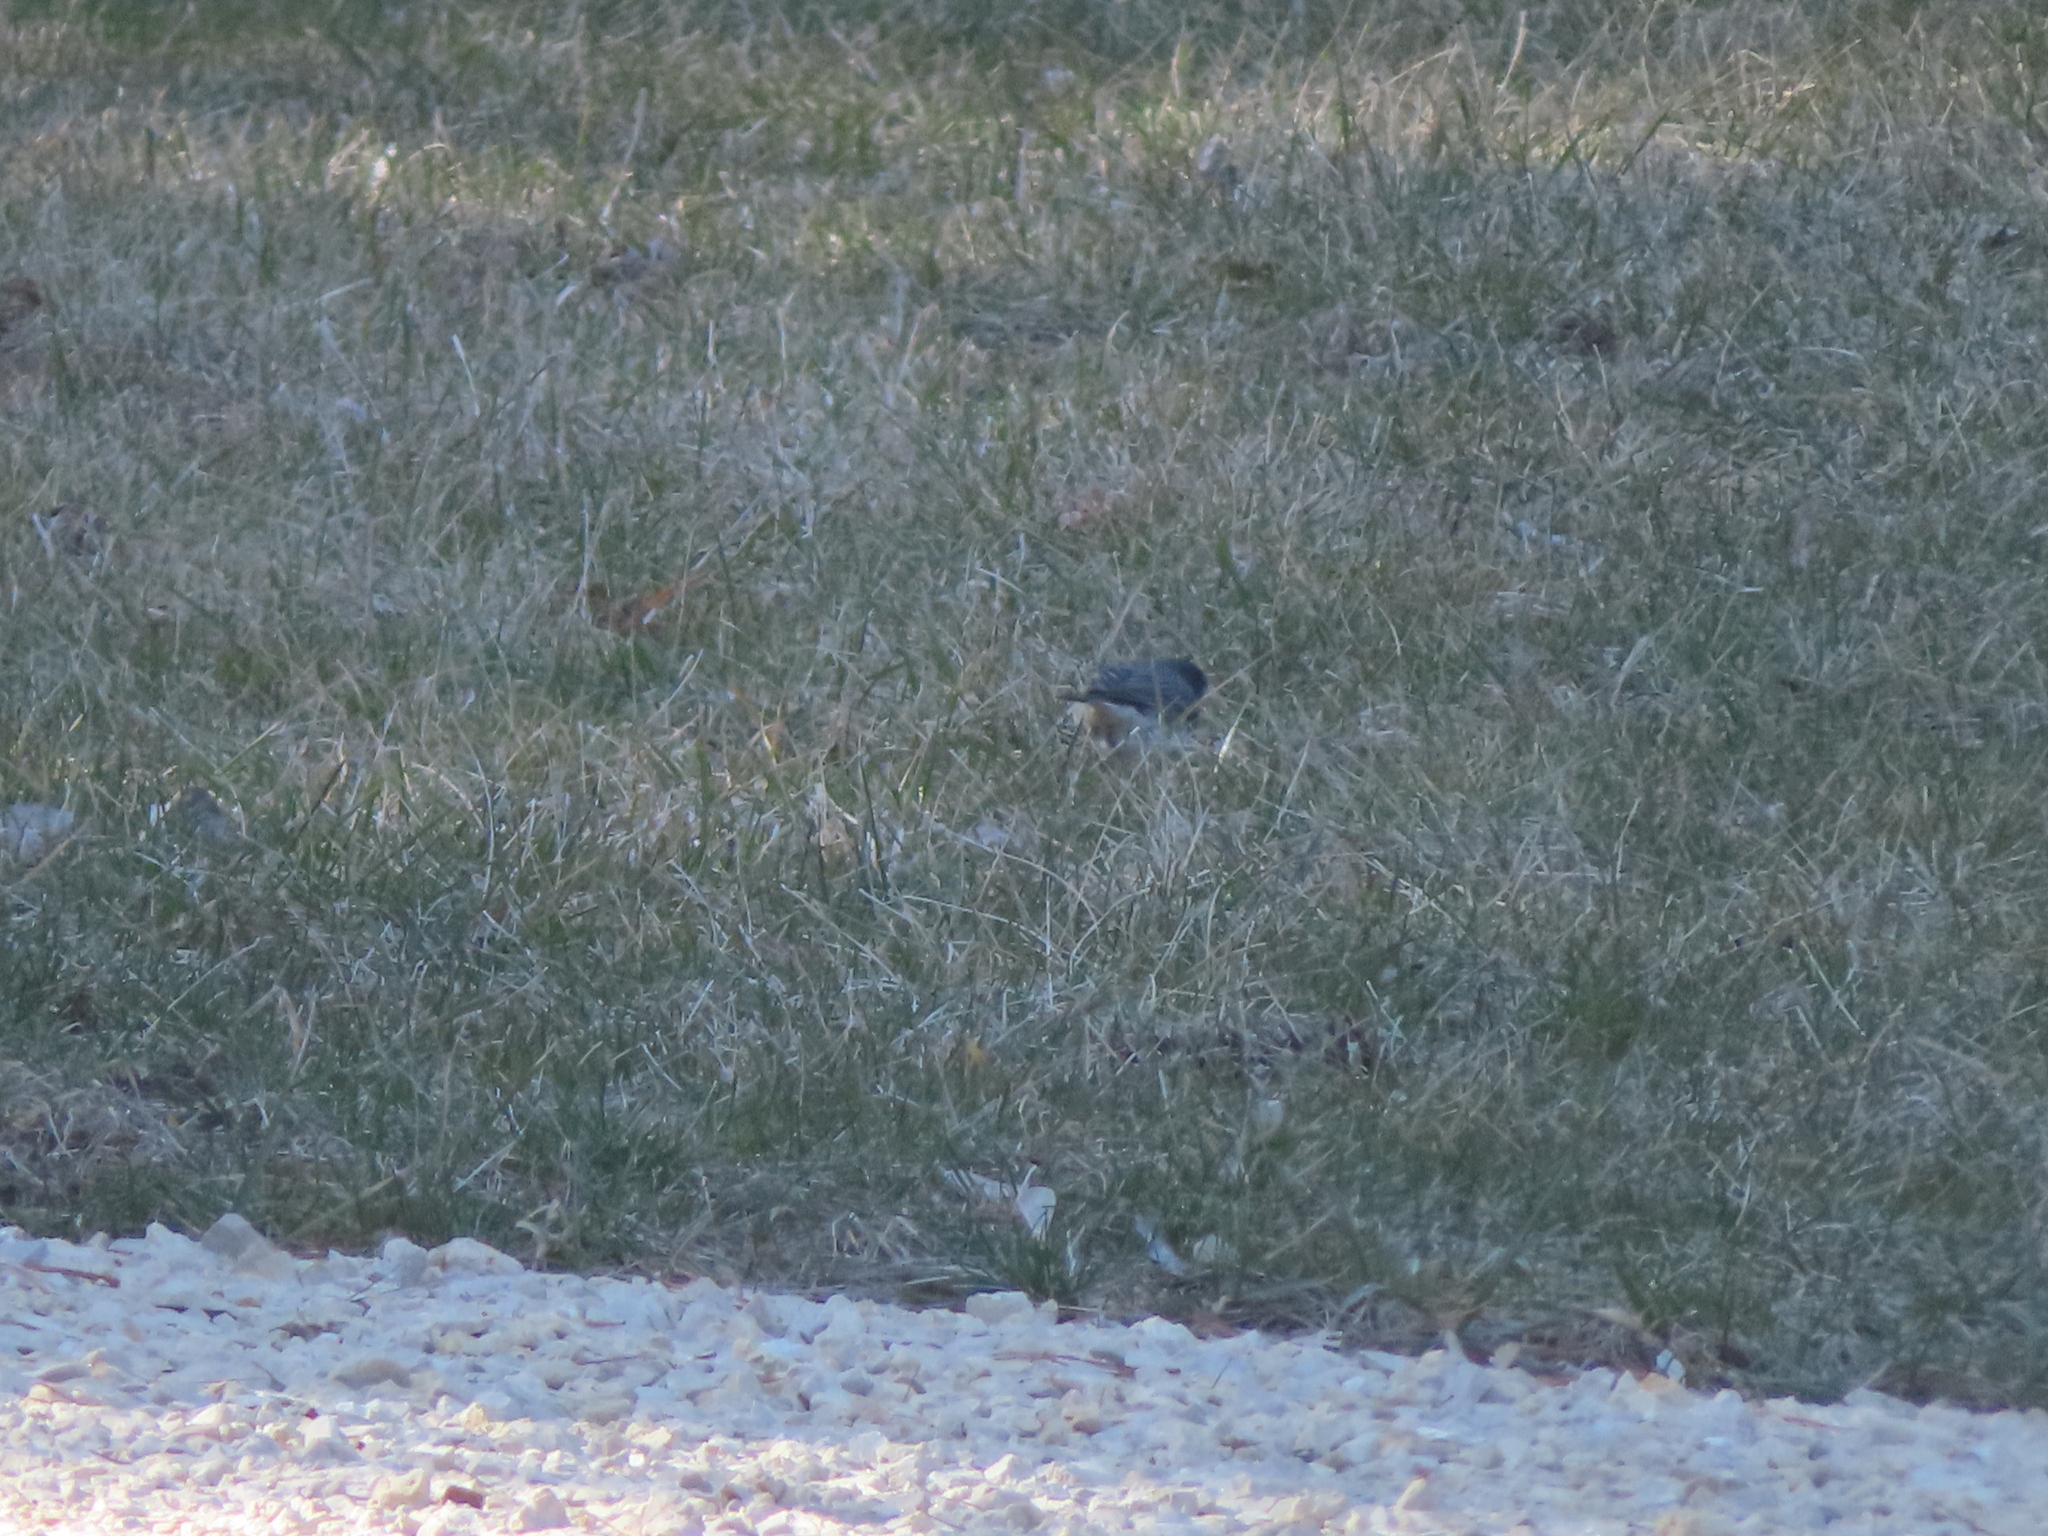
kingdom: Animalia
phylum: Chordata
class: Aves
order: Passeriformes
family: Passerellidae
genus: Junco
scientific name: Junco hyemalis
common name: Dark-eyed junco
